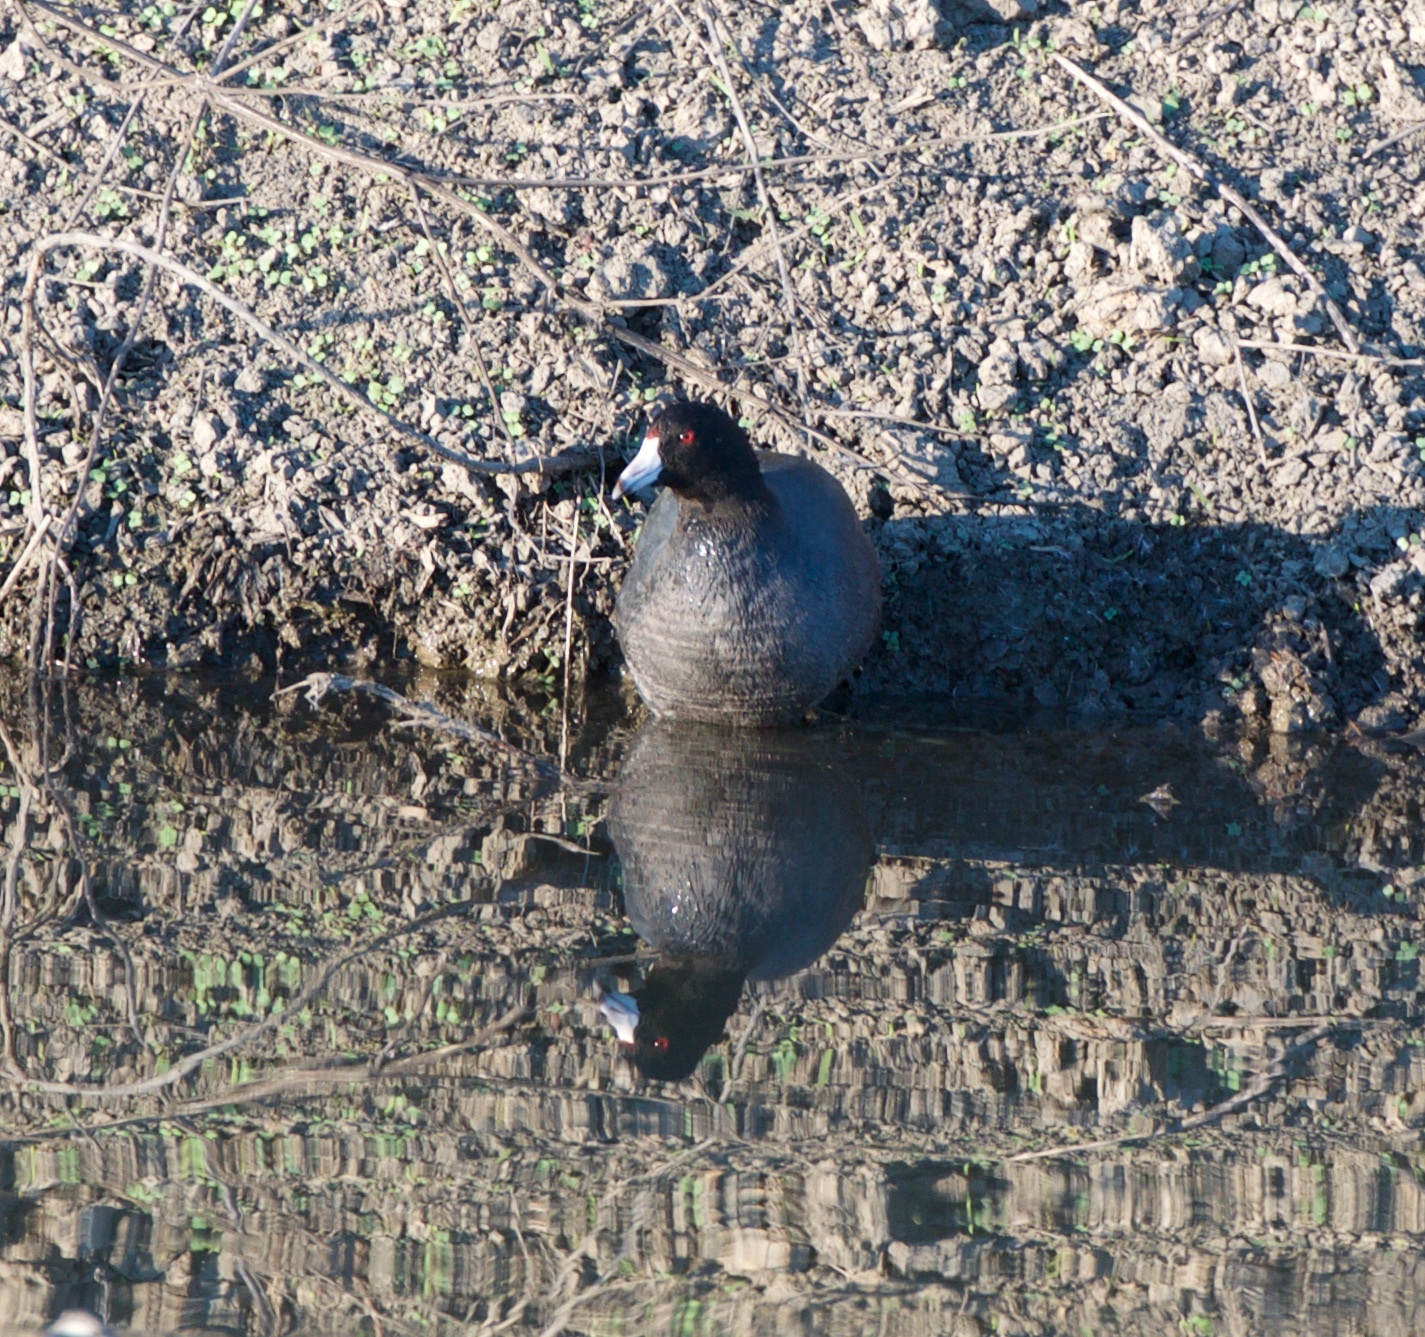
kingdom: Animalia
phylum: Chordata
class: Aves
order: Gruiformes
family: Rallidae
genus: Fulica
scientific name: Fulica americana
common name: American coot
